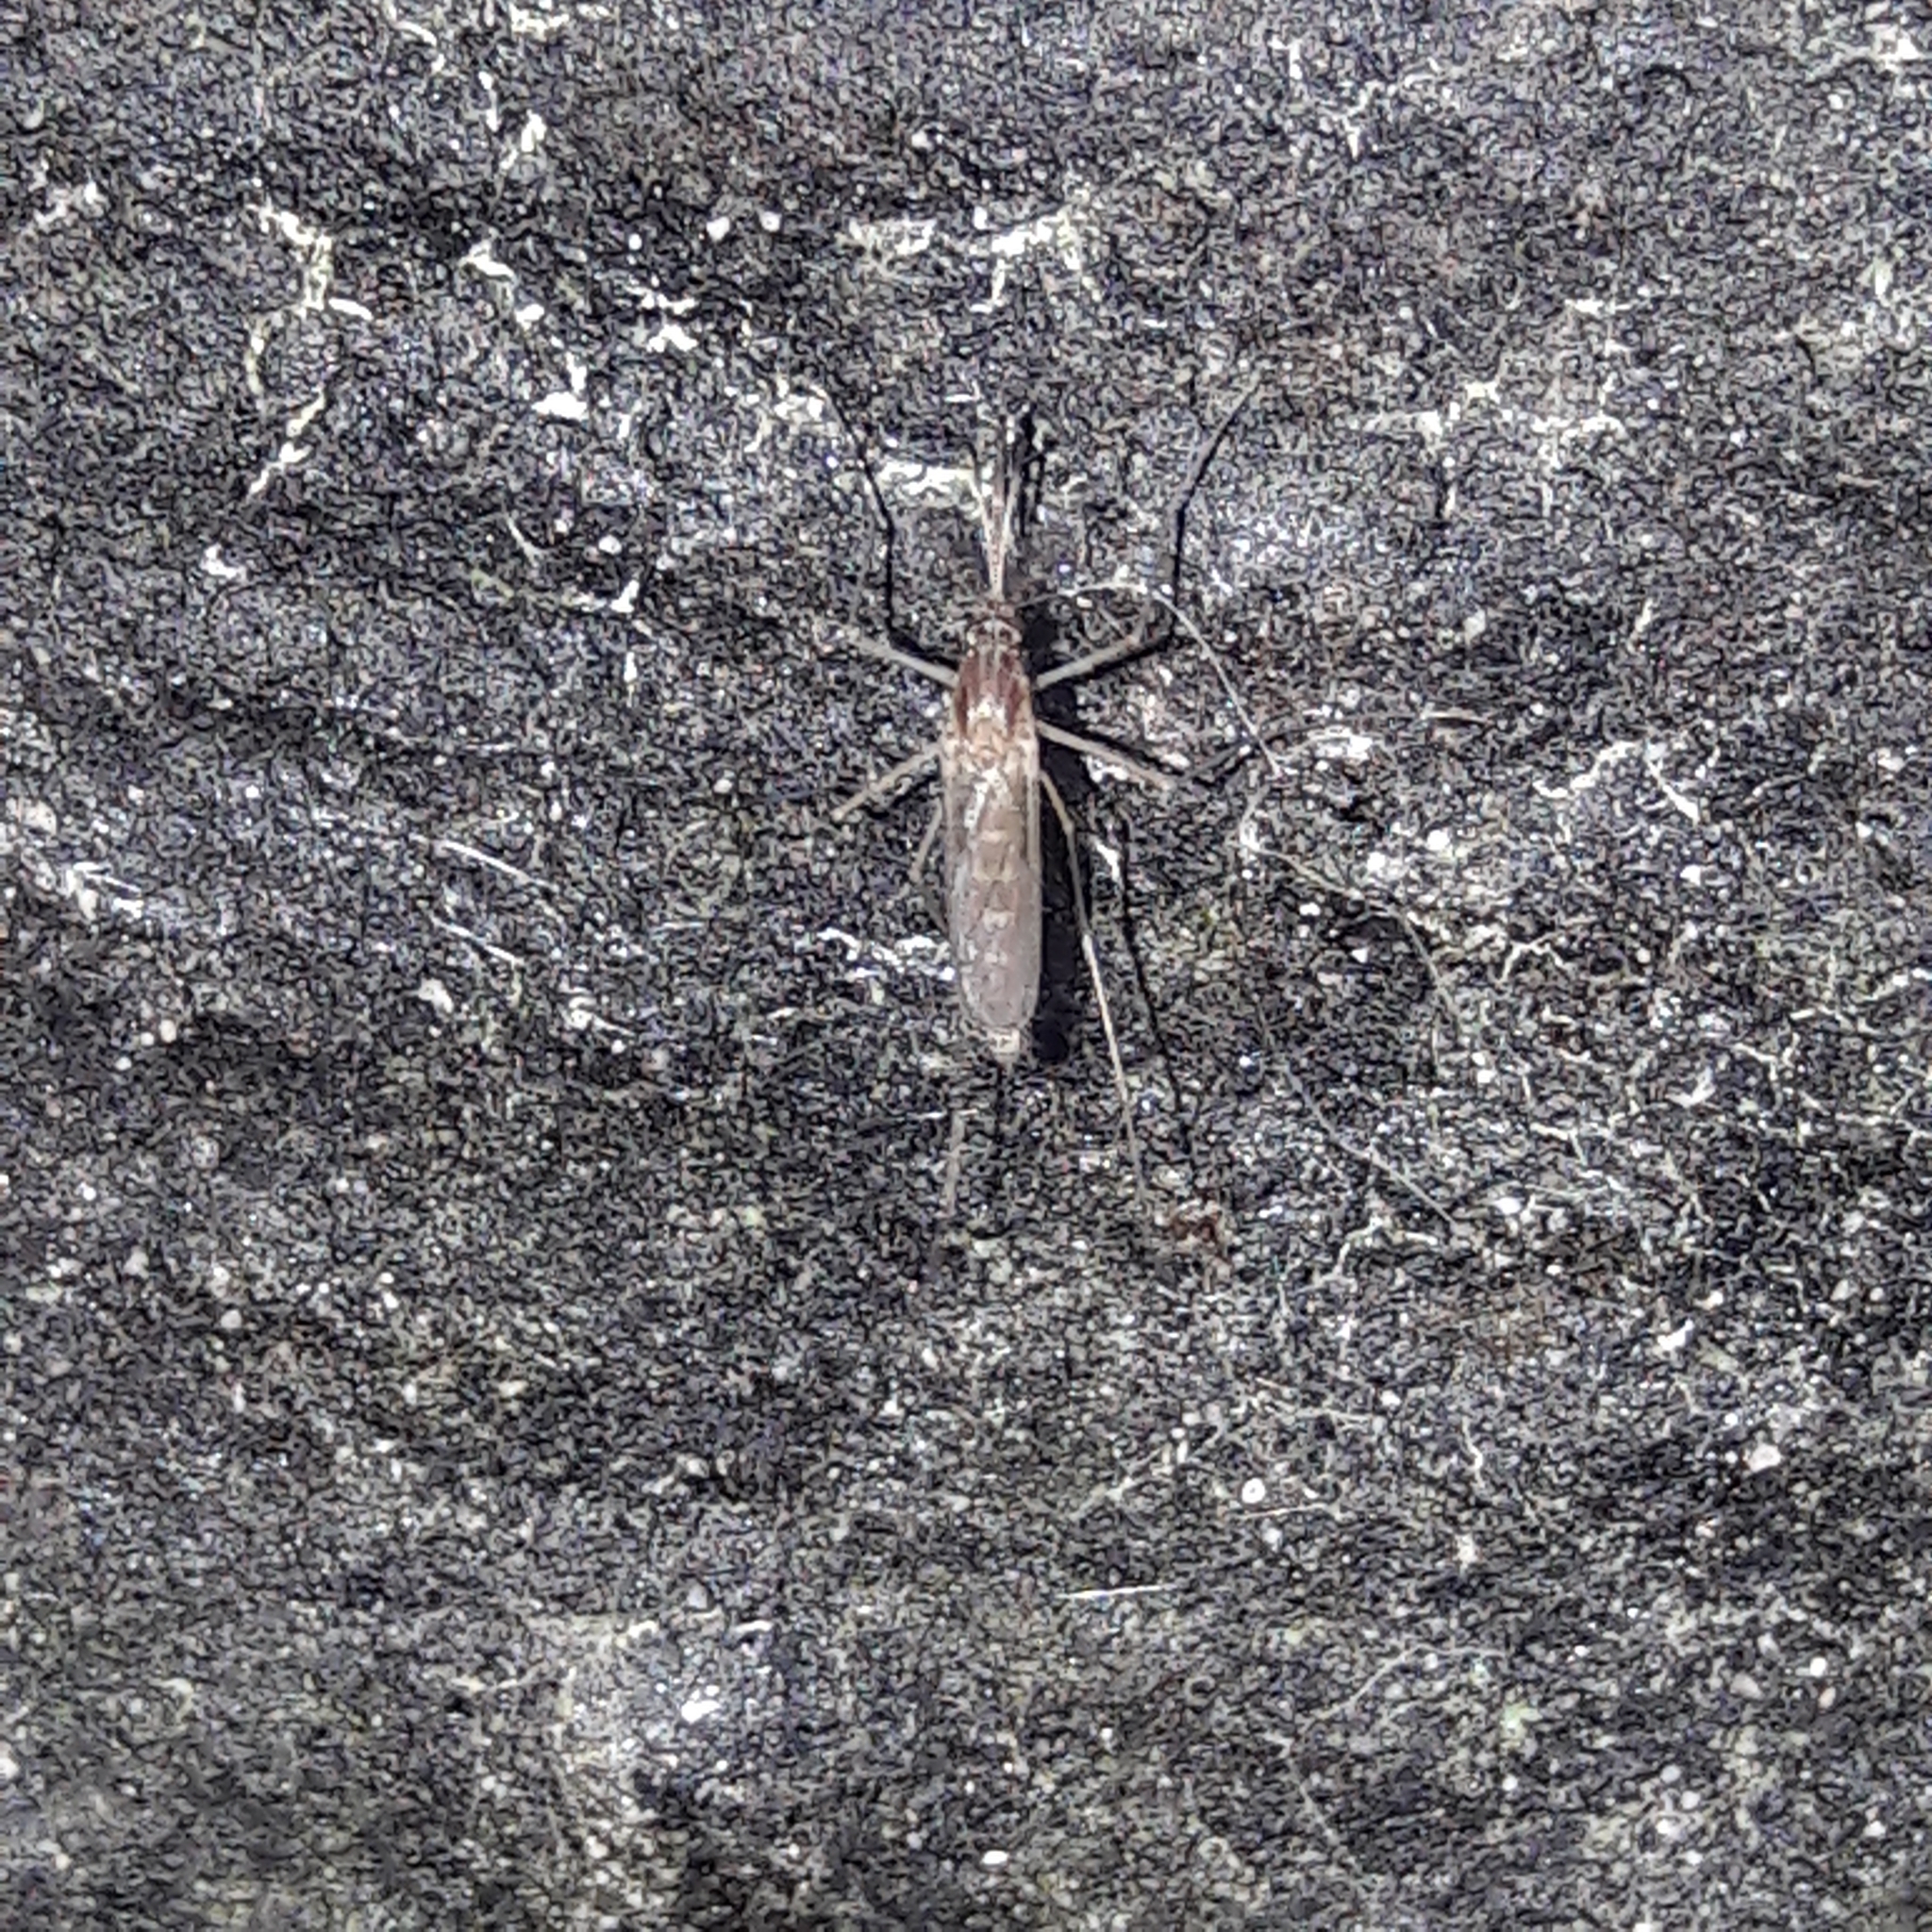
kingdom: Animalia
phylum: Arthropoda
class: Insecta
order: Diptera
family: Culicidae
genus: Culex
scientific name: Culex pipiens
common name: Mosquito
